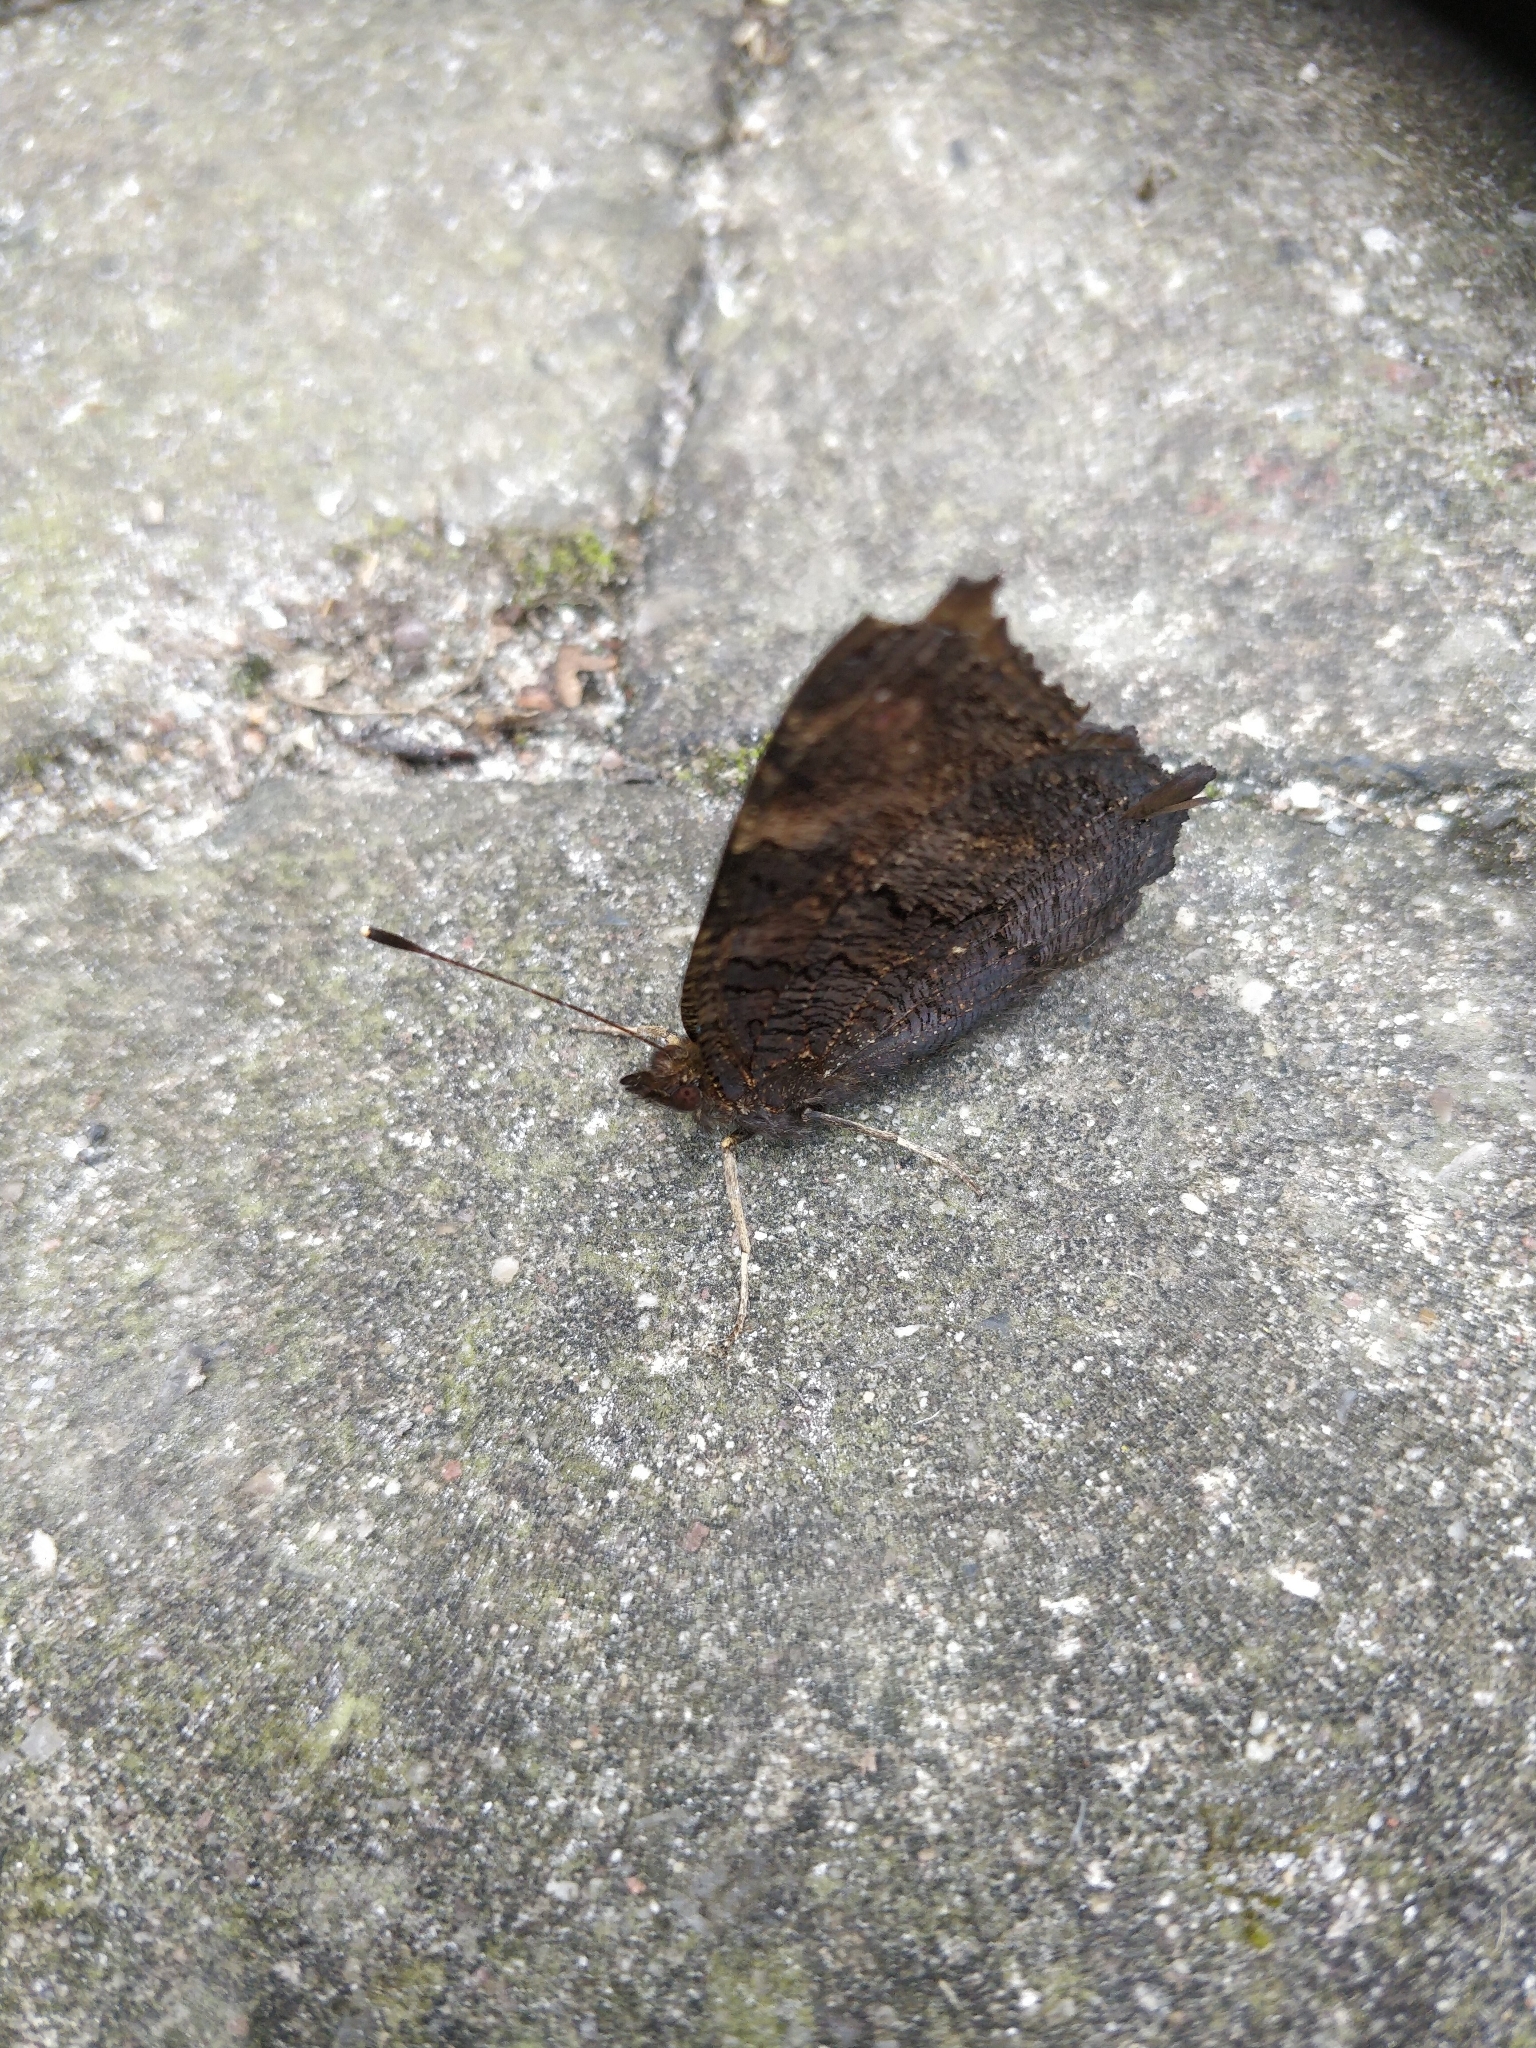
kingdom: Animalia
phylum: Arthropoda
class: Insecta
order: Lepidoptera
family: Nymphalidae
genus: Aglais
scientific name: Aglais io
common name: Peacock
